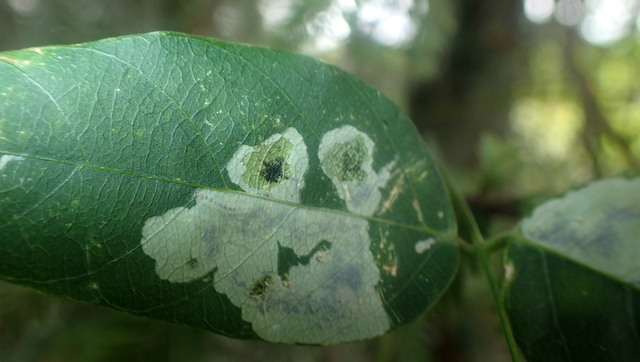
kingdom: Animalia
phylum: Arthropoda
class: Insecta
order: Lepidoptera
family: Gracillariidae
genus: Anarsioses
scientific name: Anarsioses aberrans
